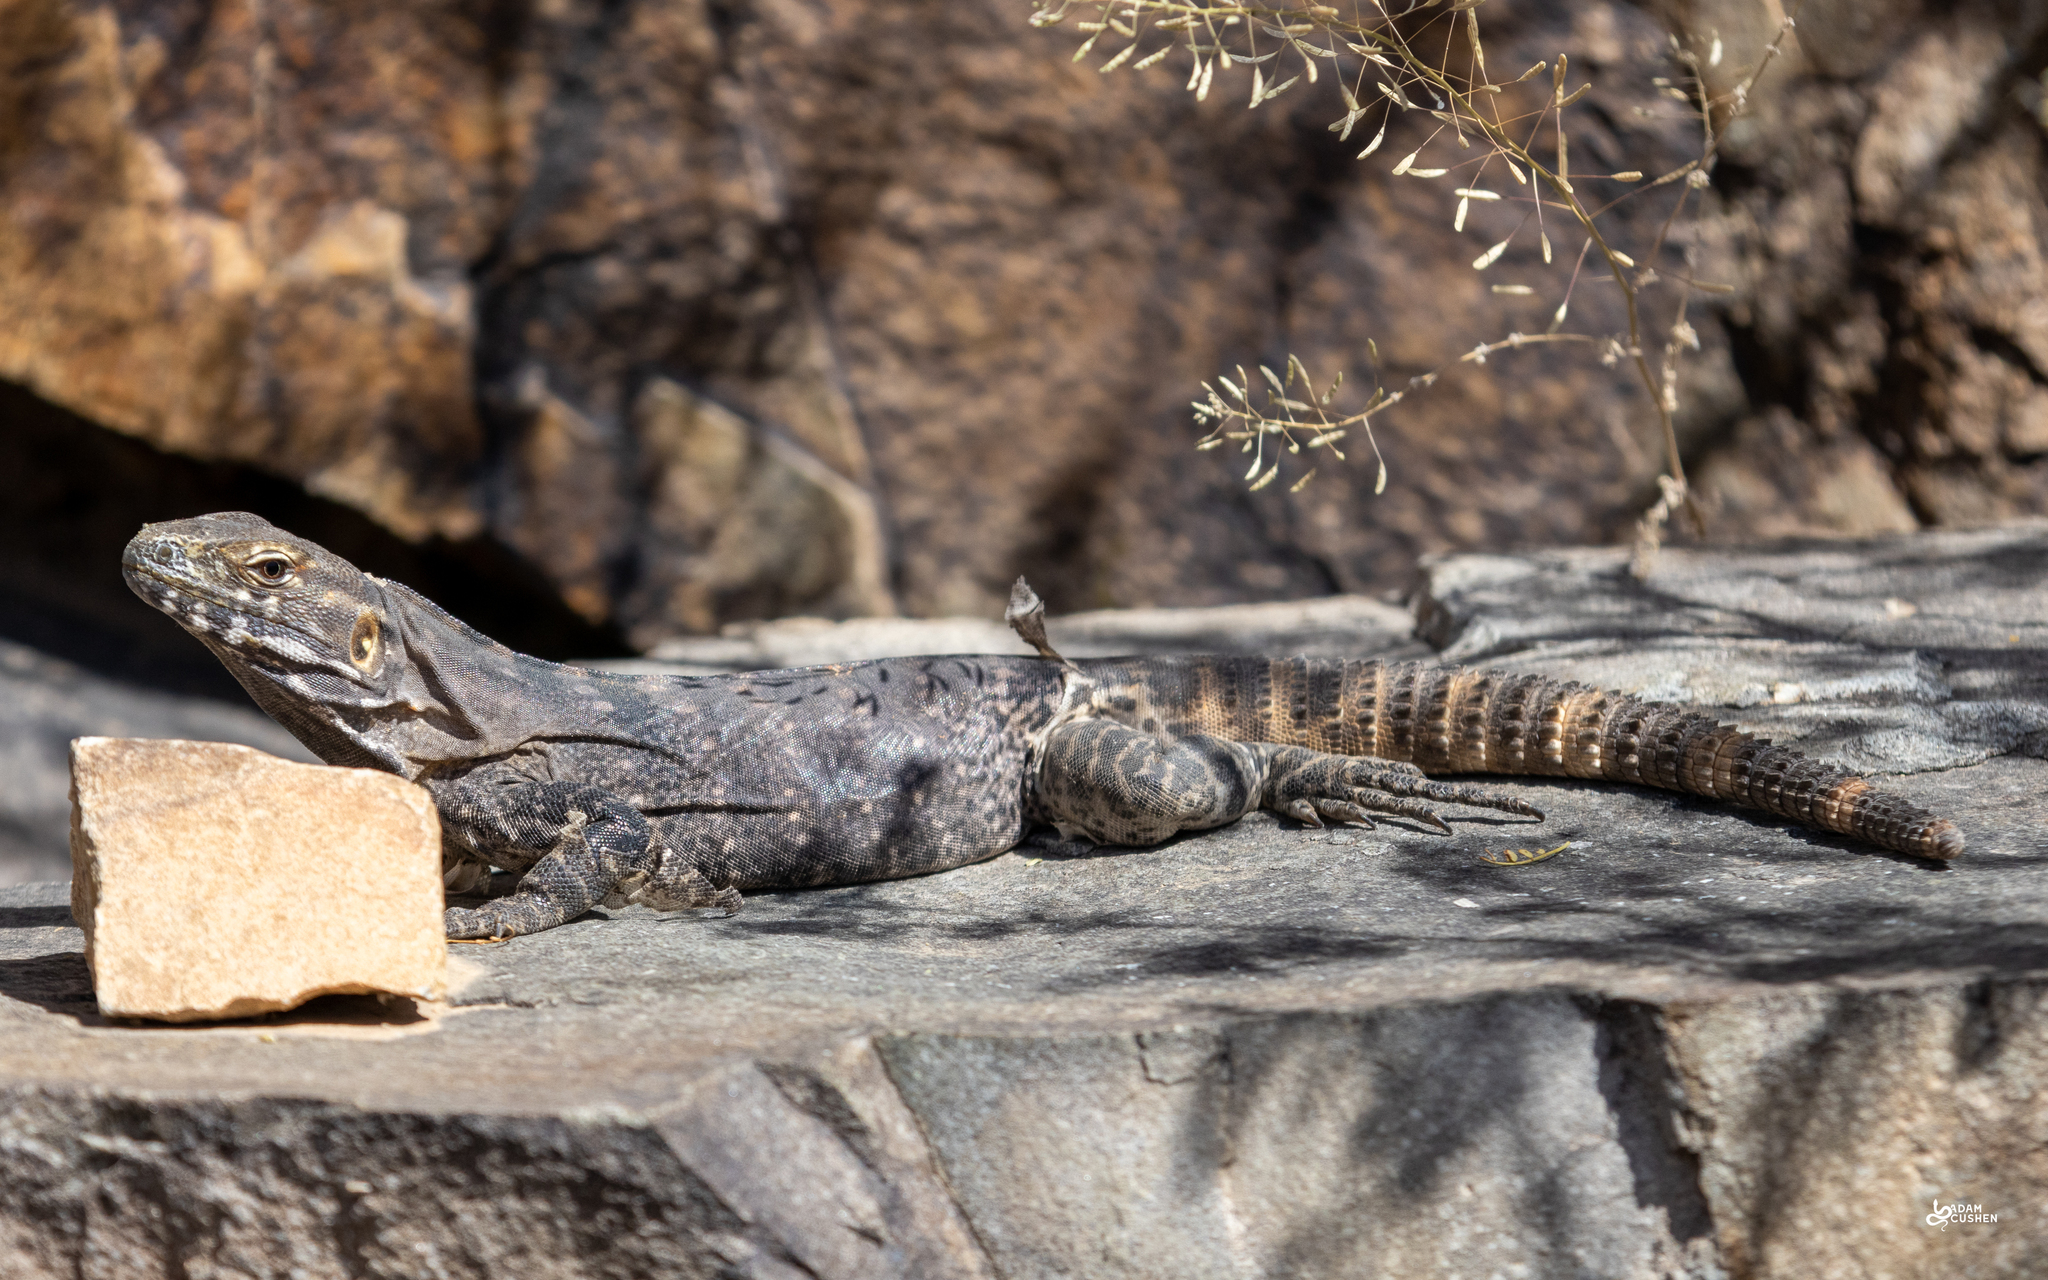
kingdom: Animalia
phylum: Chordata
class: Squamata
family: Iguanidae
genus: Ctenosaura
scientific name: Ctenosaura
